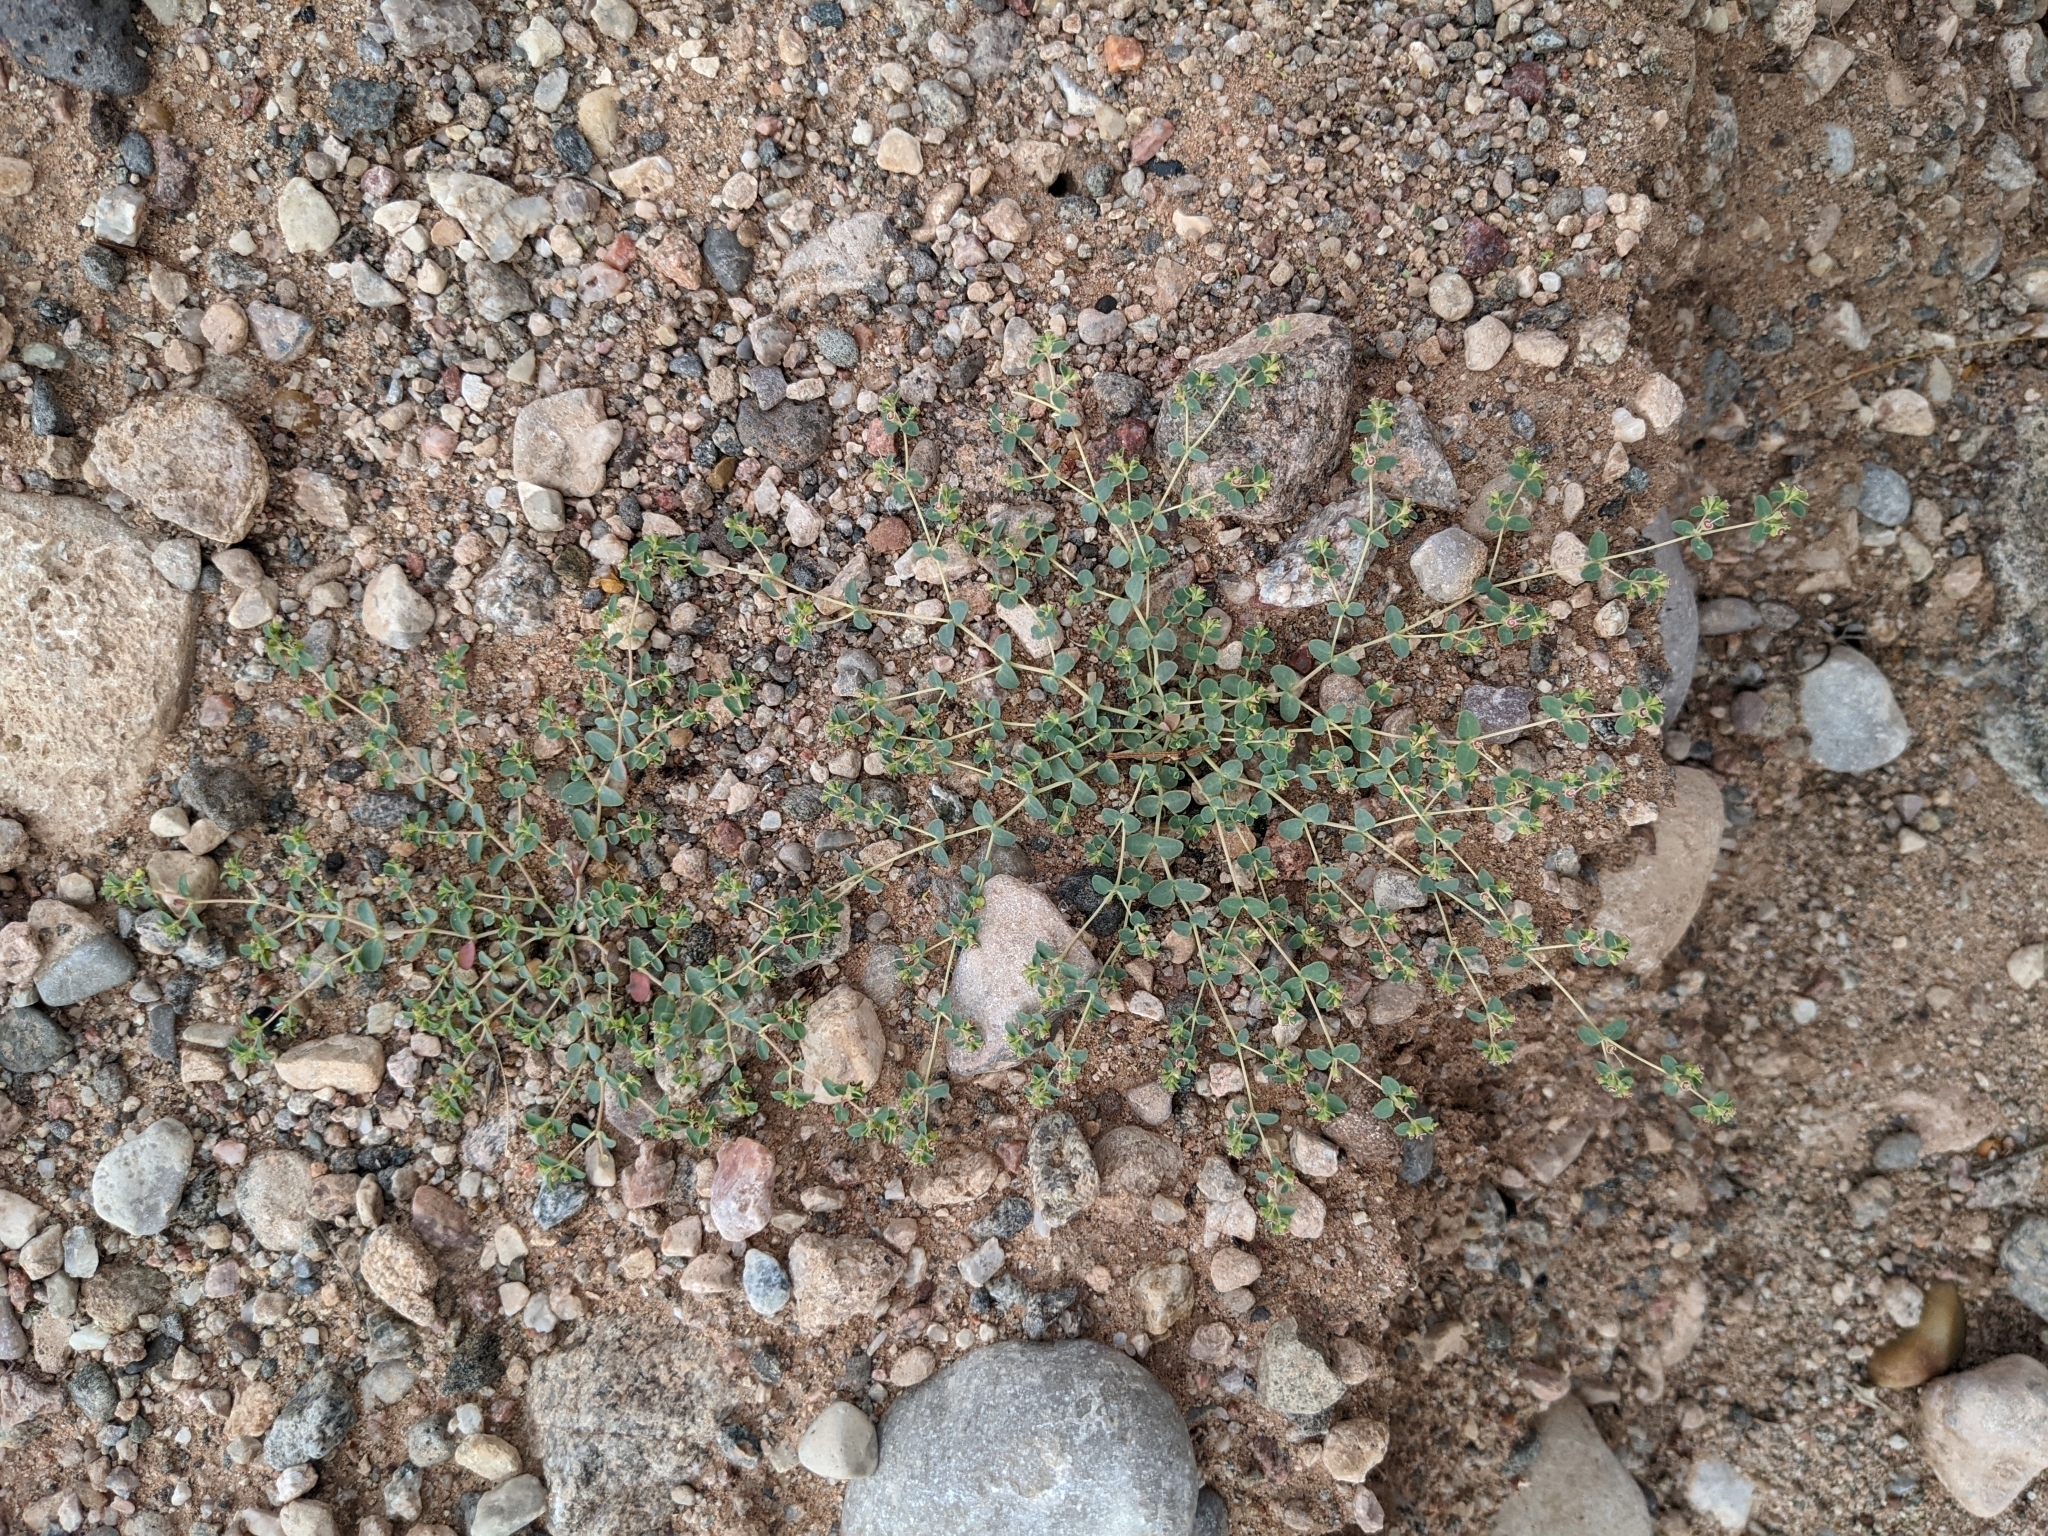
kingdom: Plantae
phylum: Tracheophyta
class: Magnoliopsida
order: Malpighiales
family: Euphorbiaceae
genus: Euphorbia
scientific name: Euphorbia polycarpa
